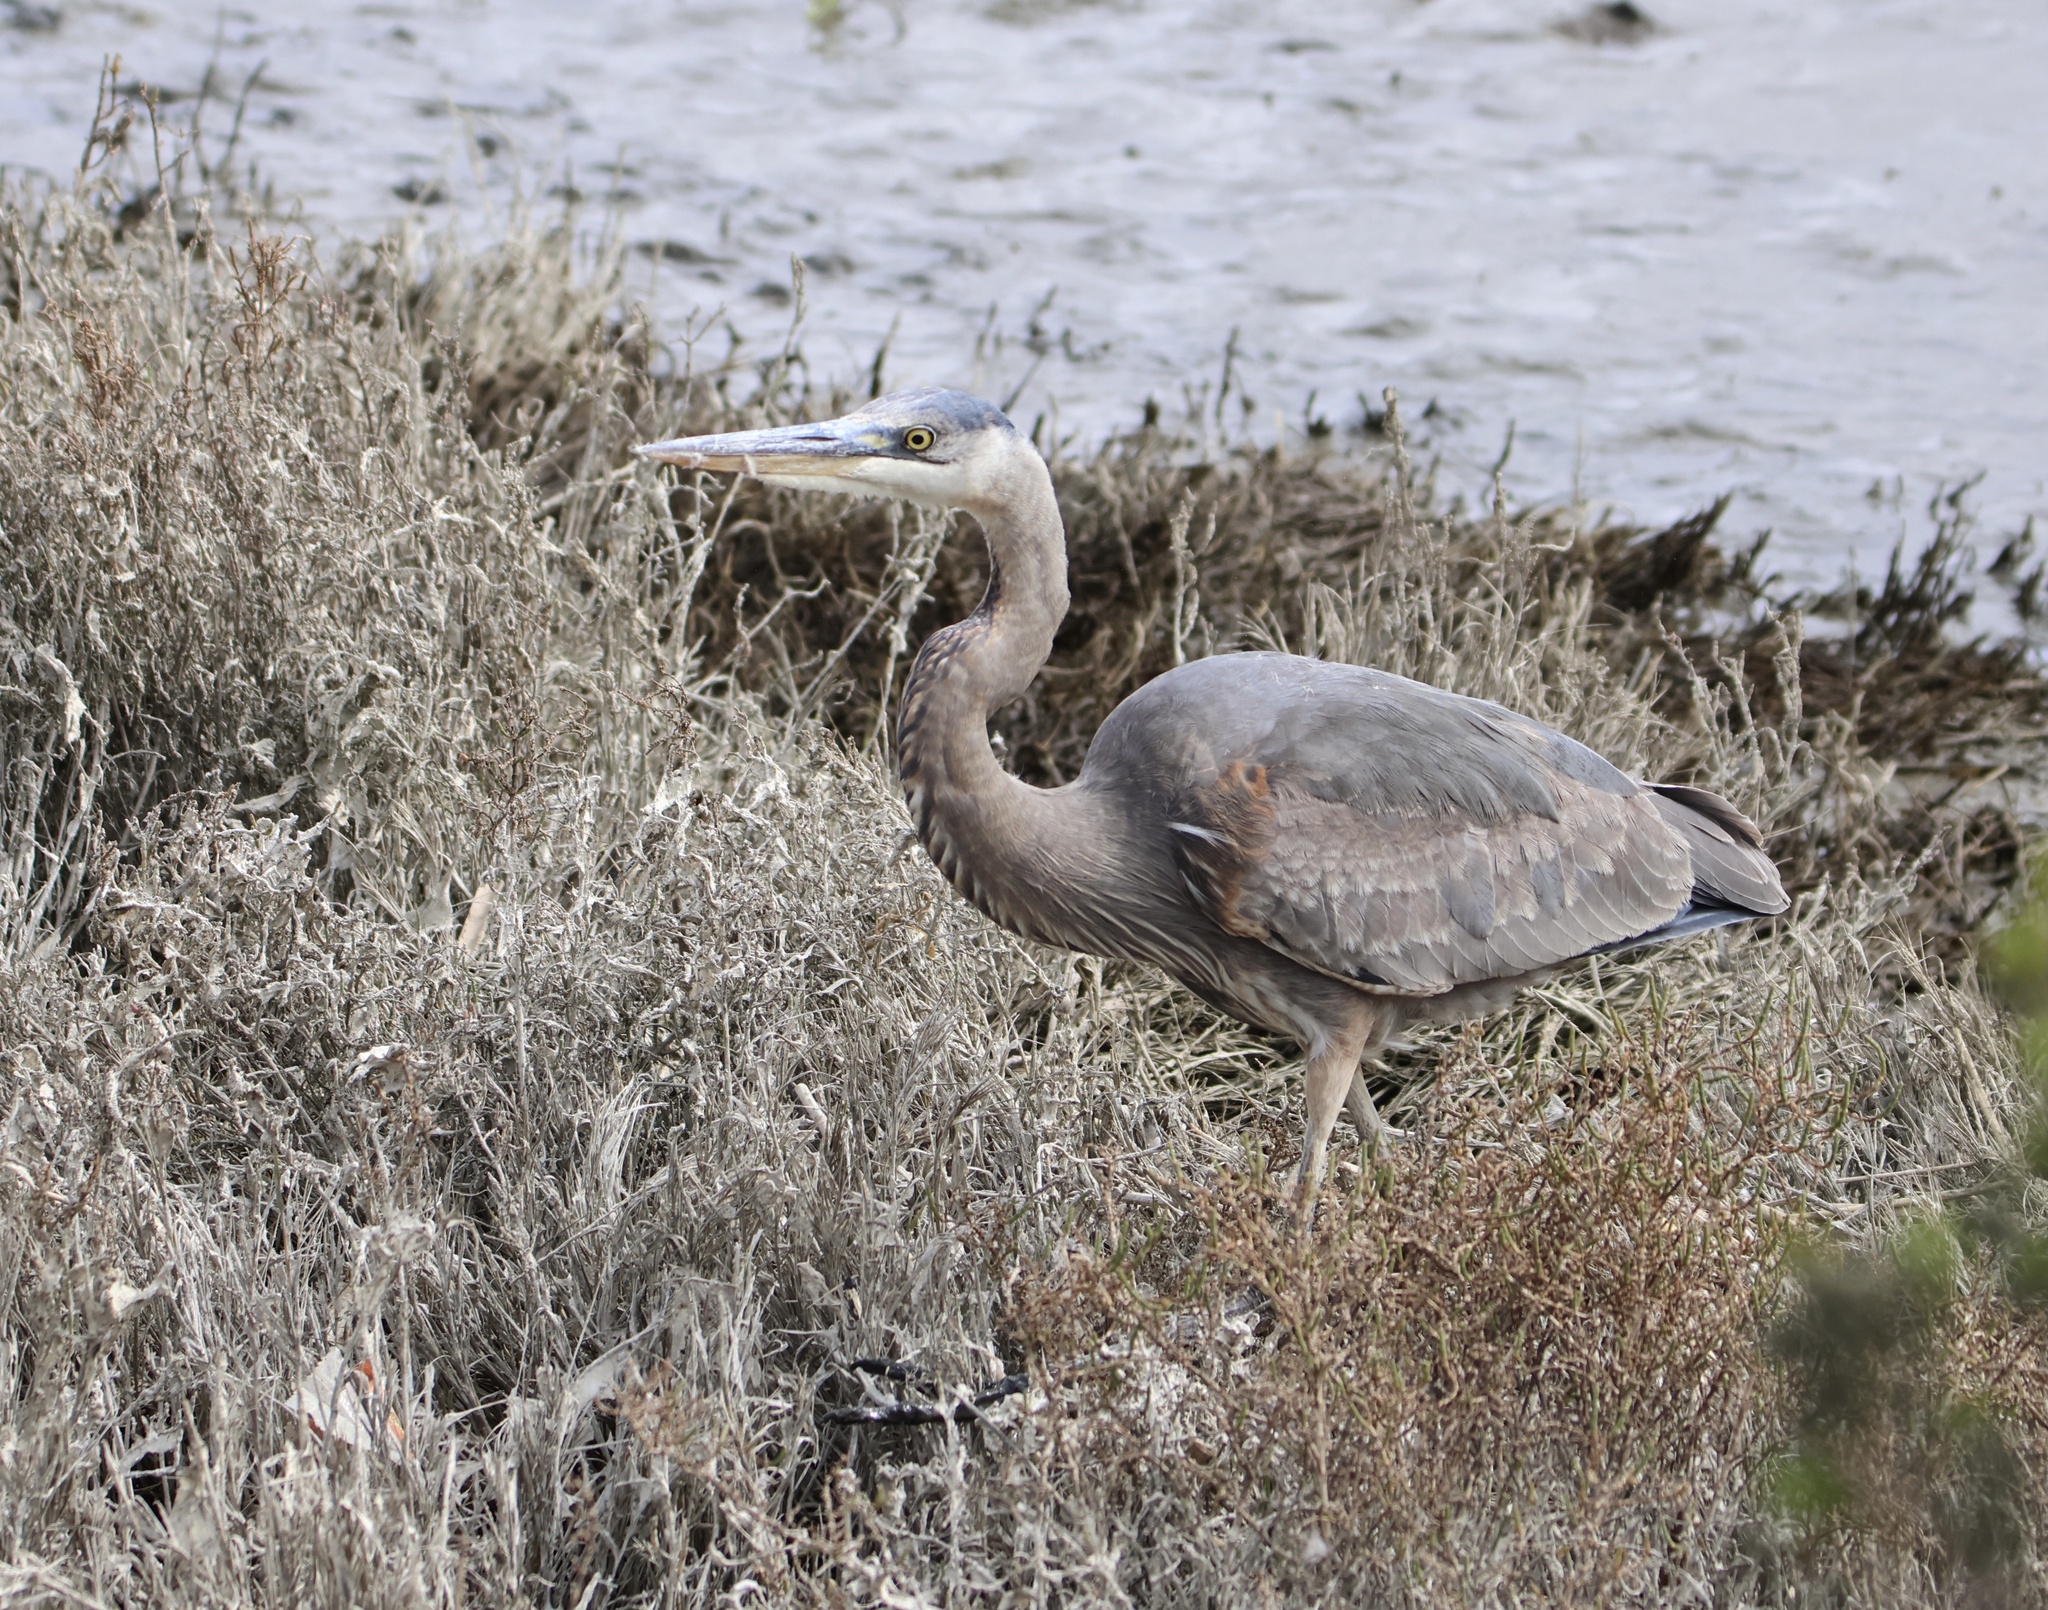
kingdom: Animalia
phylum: Chordata
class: Aves
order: Pelecaniformes
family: Ardeidae
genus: Ardea
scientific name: Ardea herodias
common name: Great blue heron
